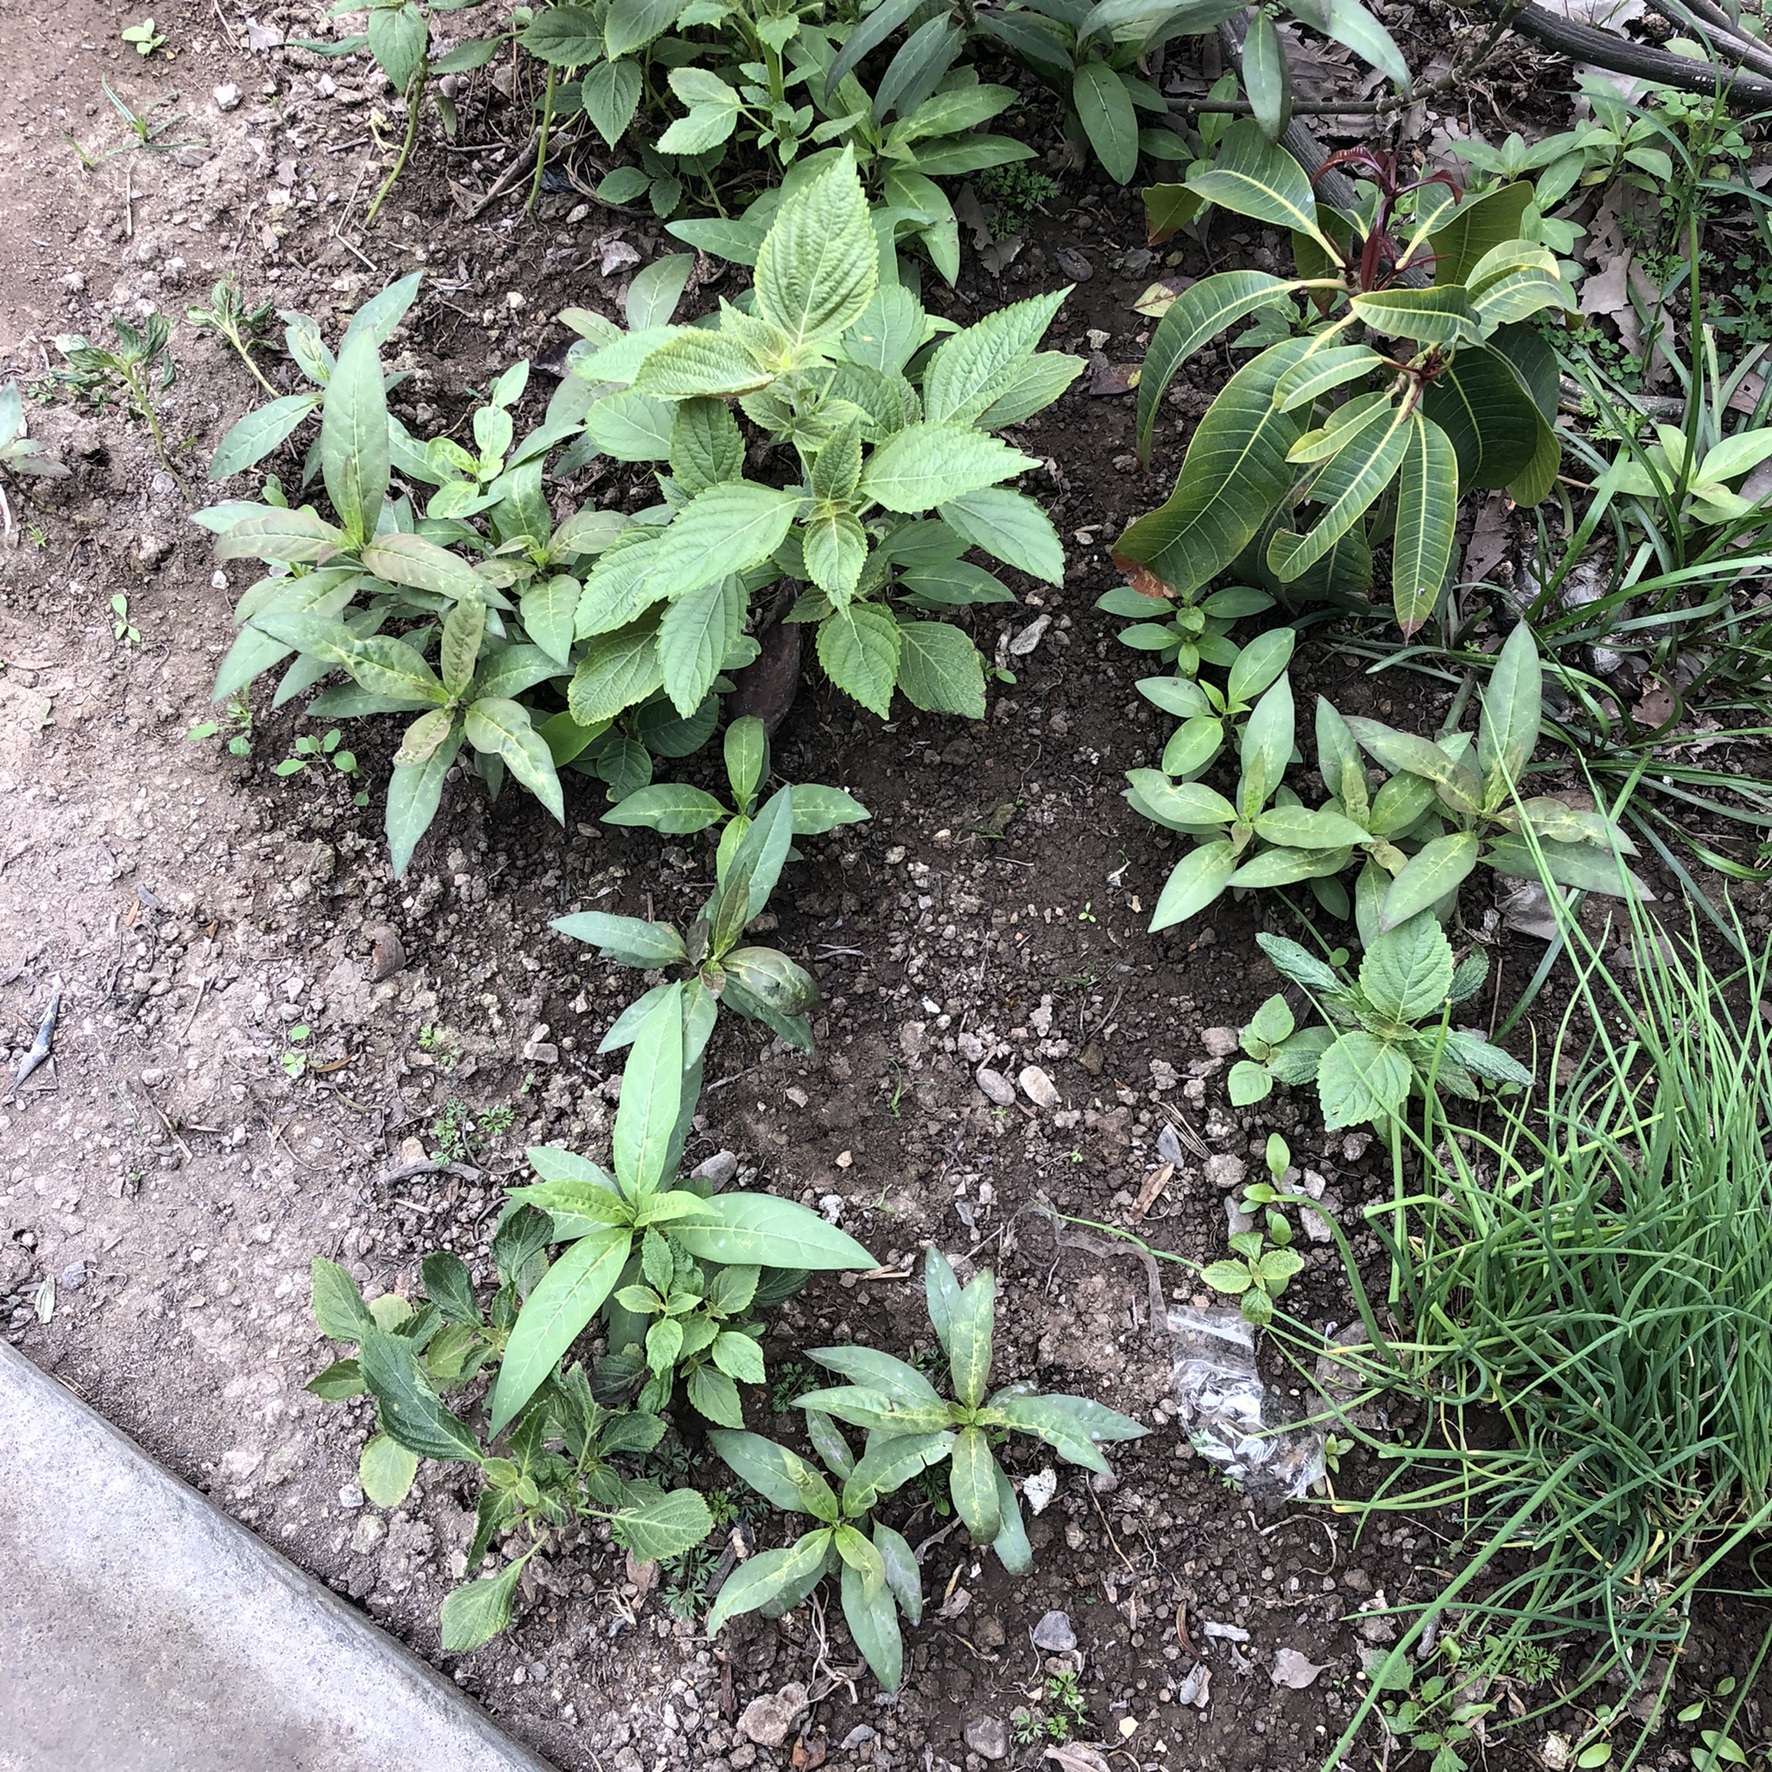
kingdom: Plantae
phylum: Tracheophyta
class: Magnoliopsida
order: Gentianales
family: Apocynaceae
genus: Asclepias
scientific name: Asclepias curassavica
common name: Bloodflower
